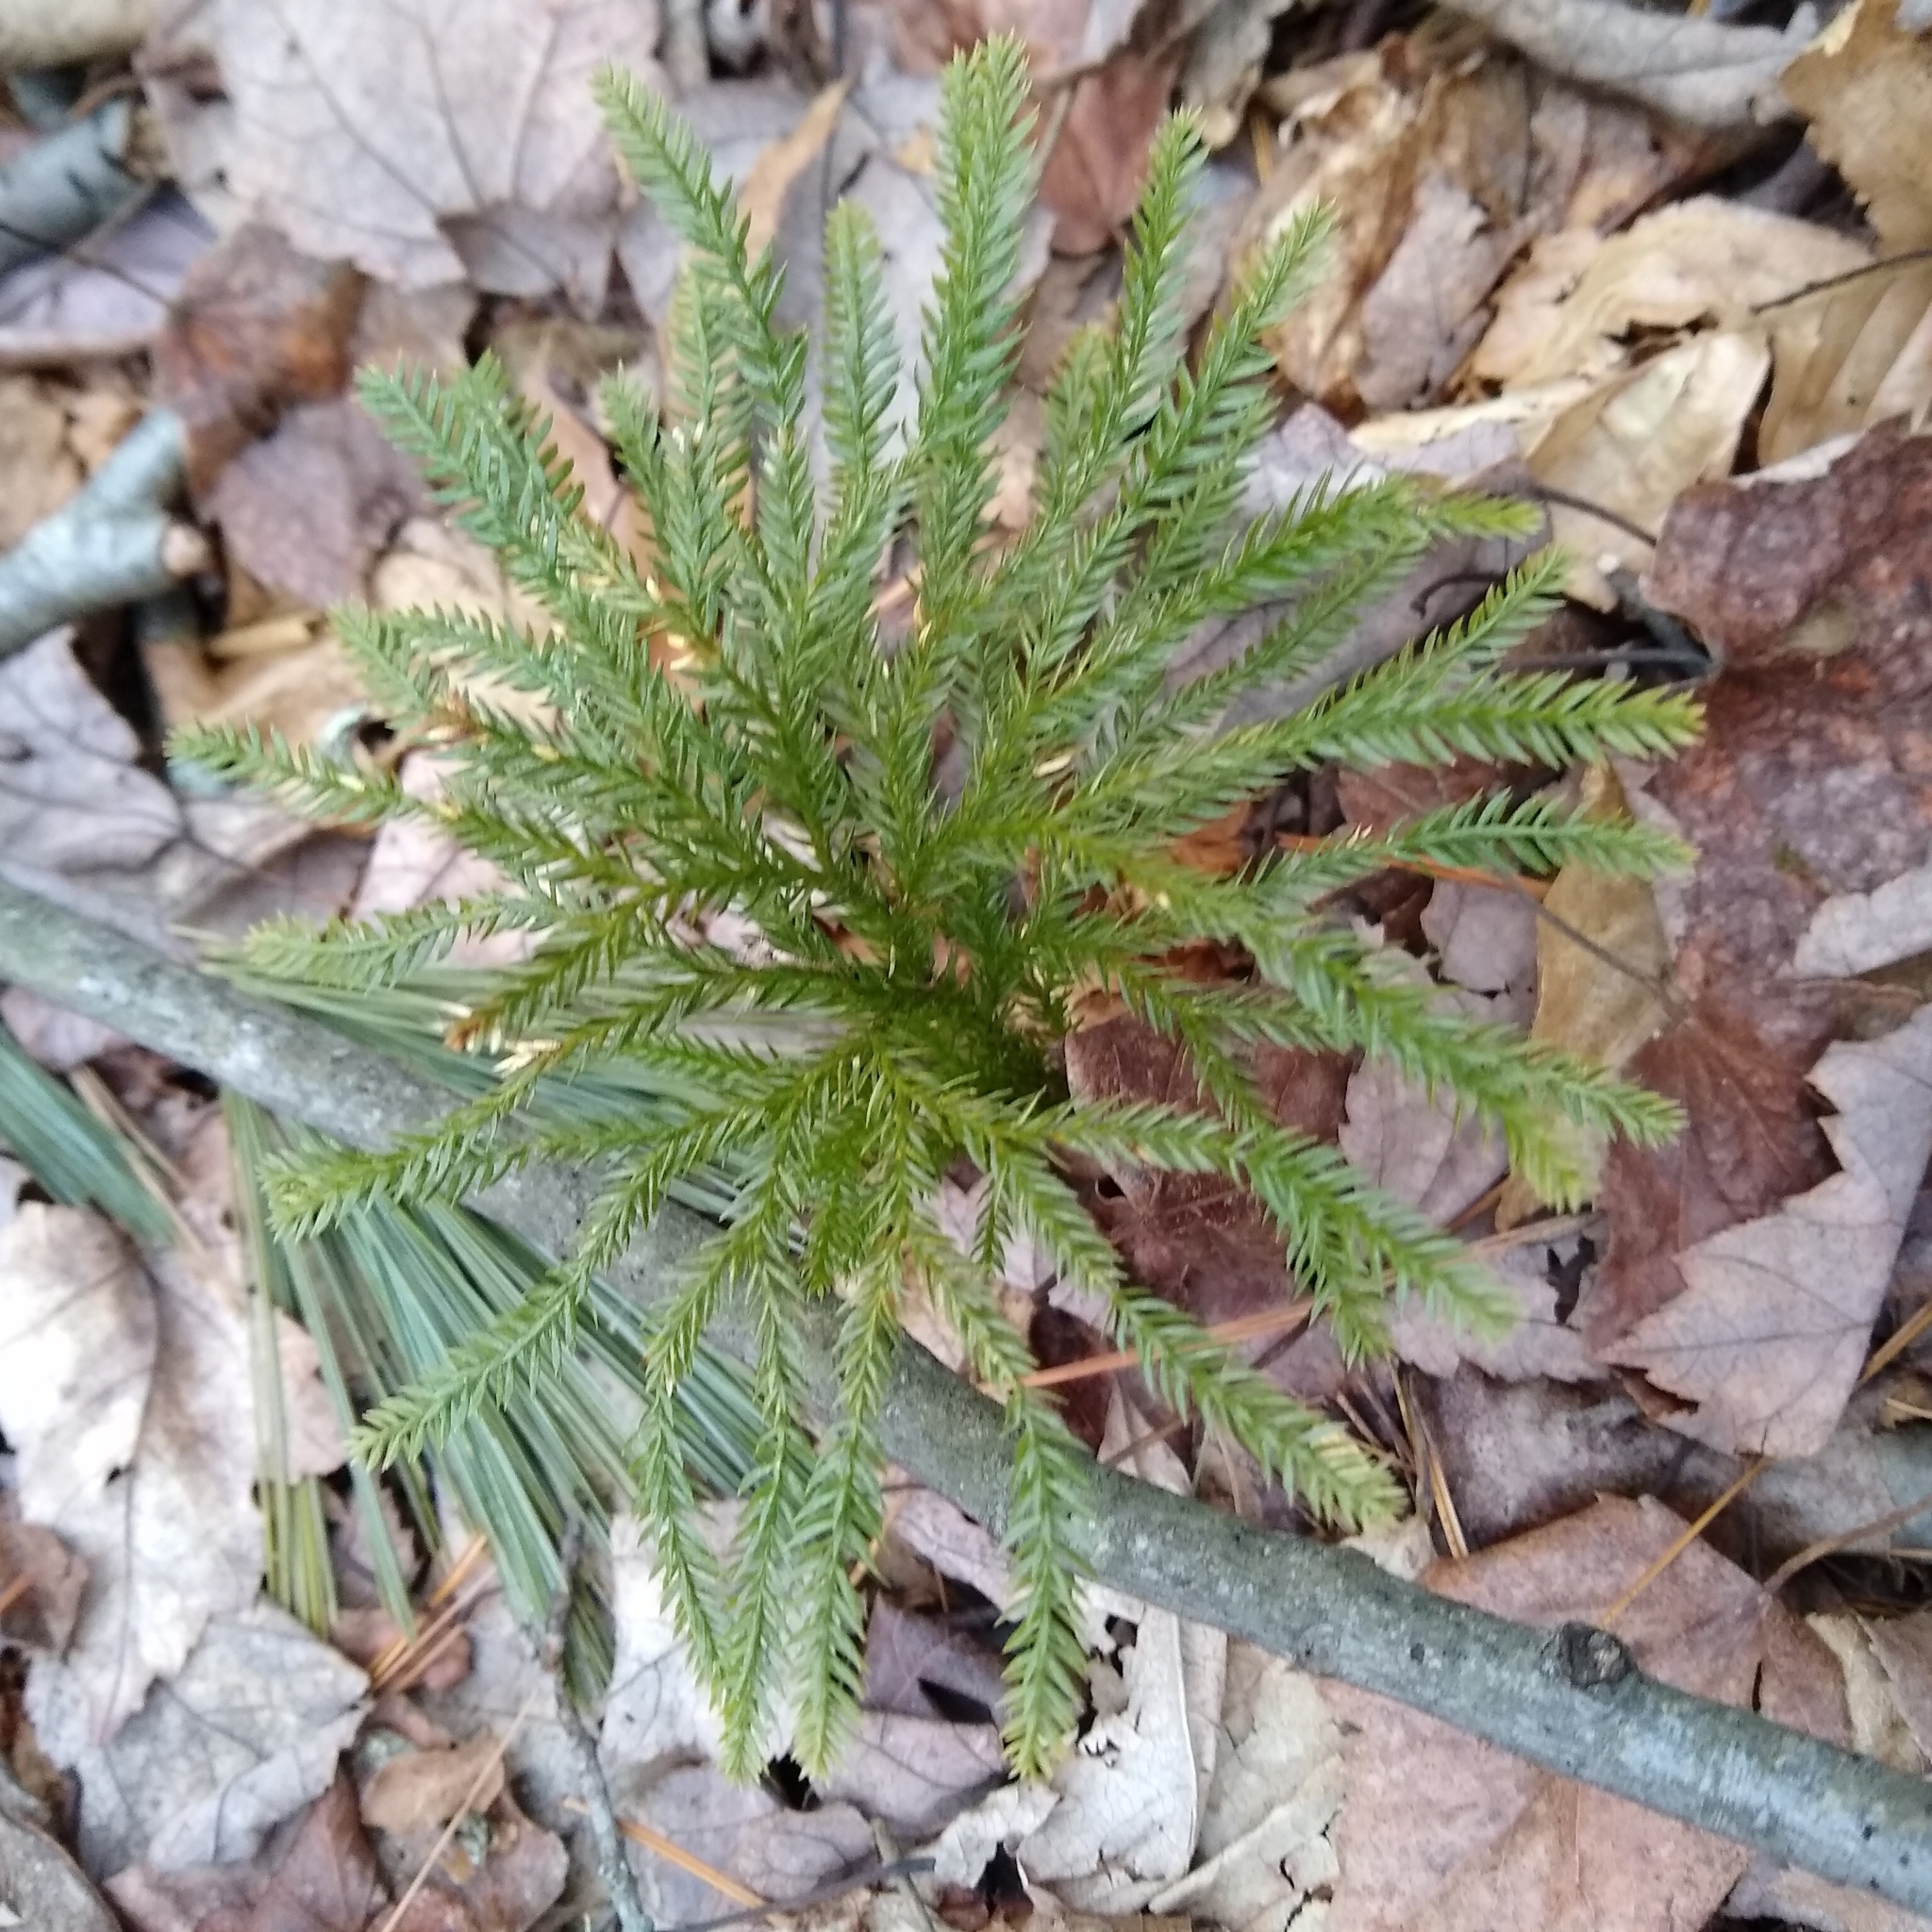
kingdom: Plantae
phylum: Tracheophyta
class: Lycopodiopsida
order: Lycopodiales
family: Lycopodiaceae
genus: Dendrolycopodium
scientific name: Dendrolycopodium obscurum
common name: Common ground-pine
